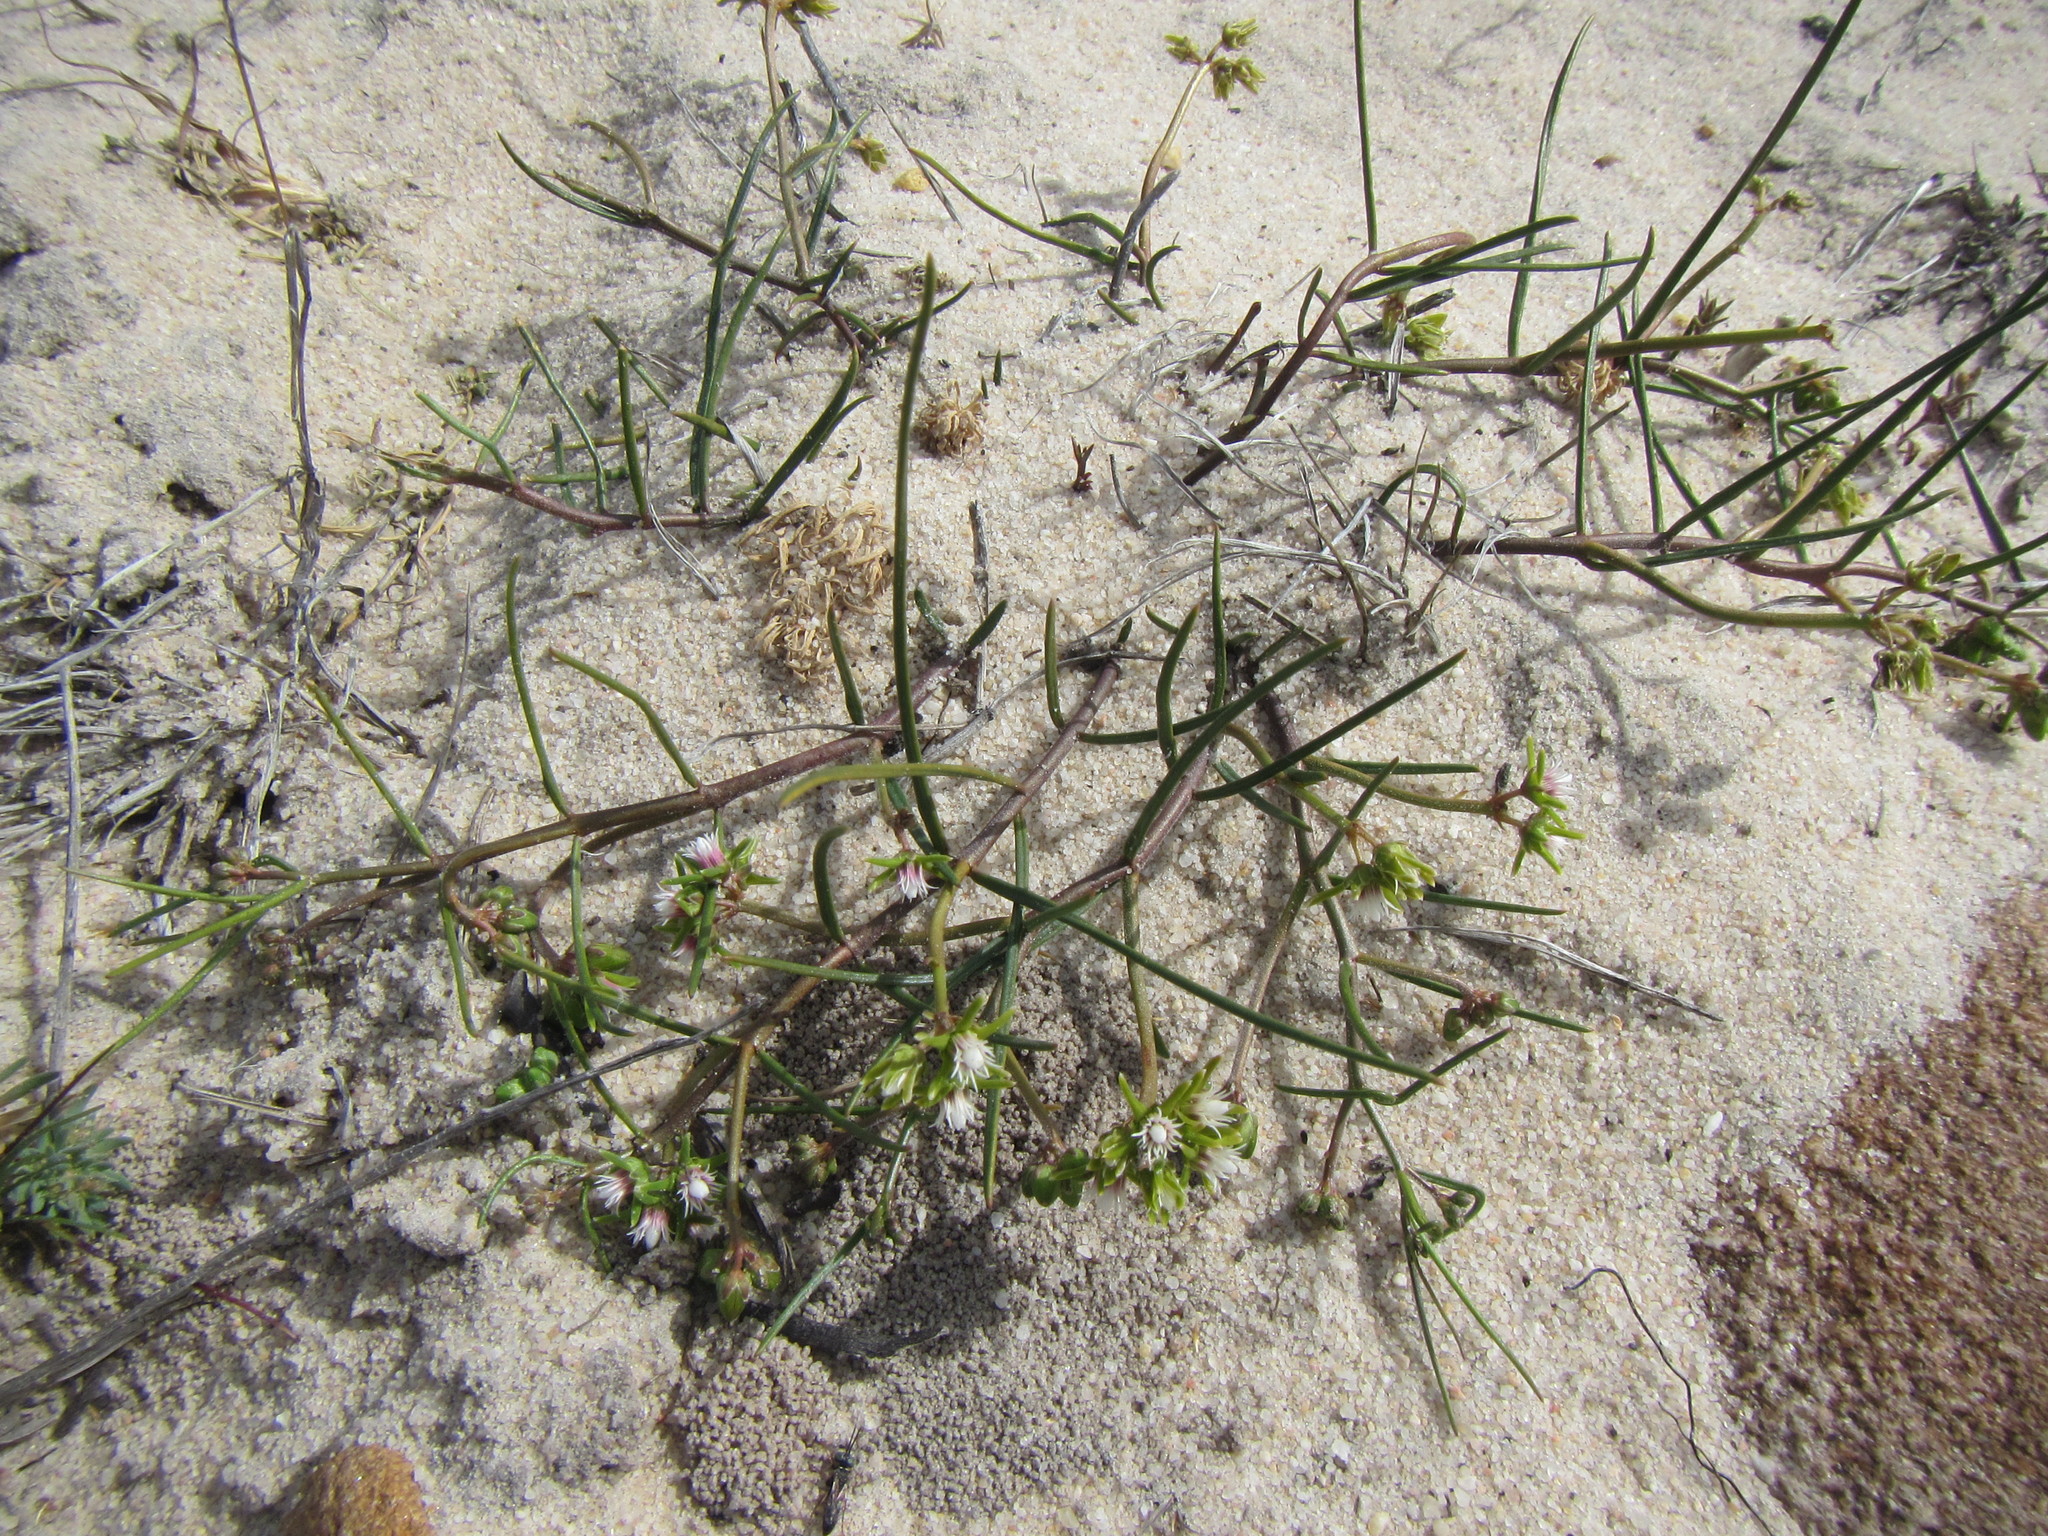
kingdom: Plantae
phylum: Tracheophyta
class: Magnoliopsida
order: Gentianales
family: Apocynaceae
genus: Eustegia
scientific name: Eustegia minuta
